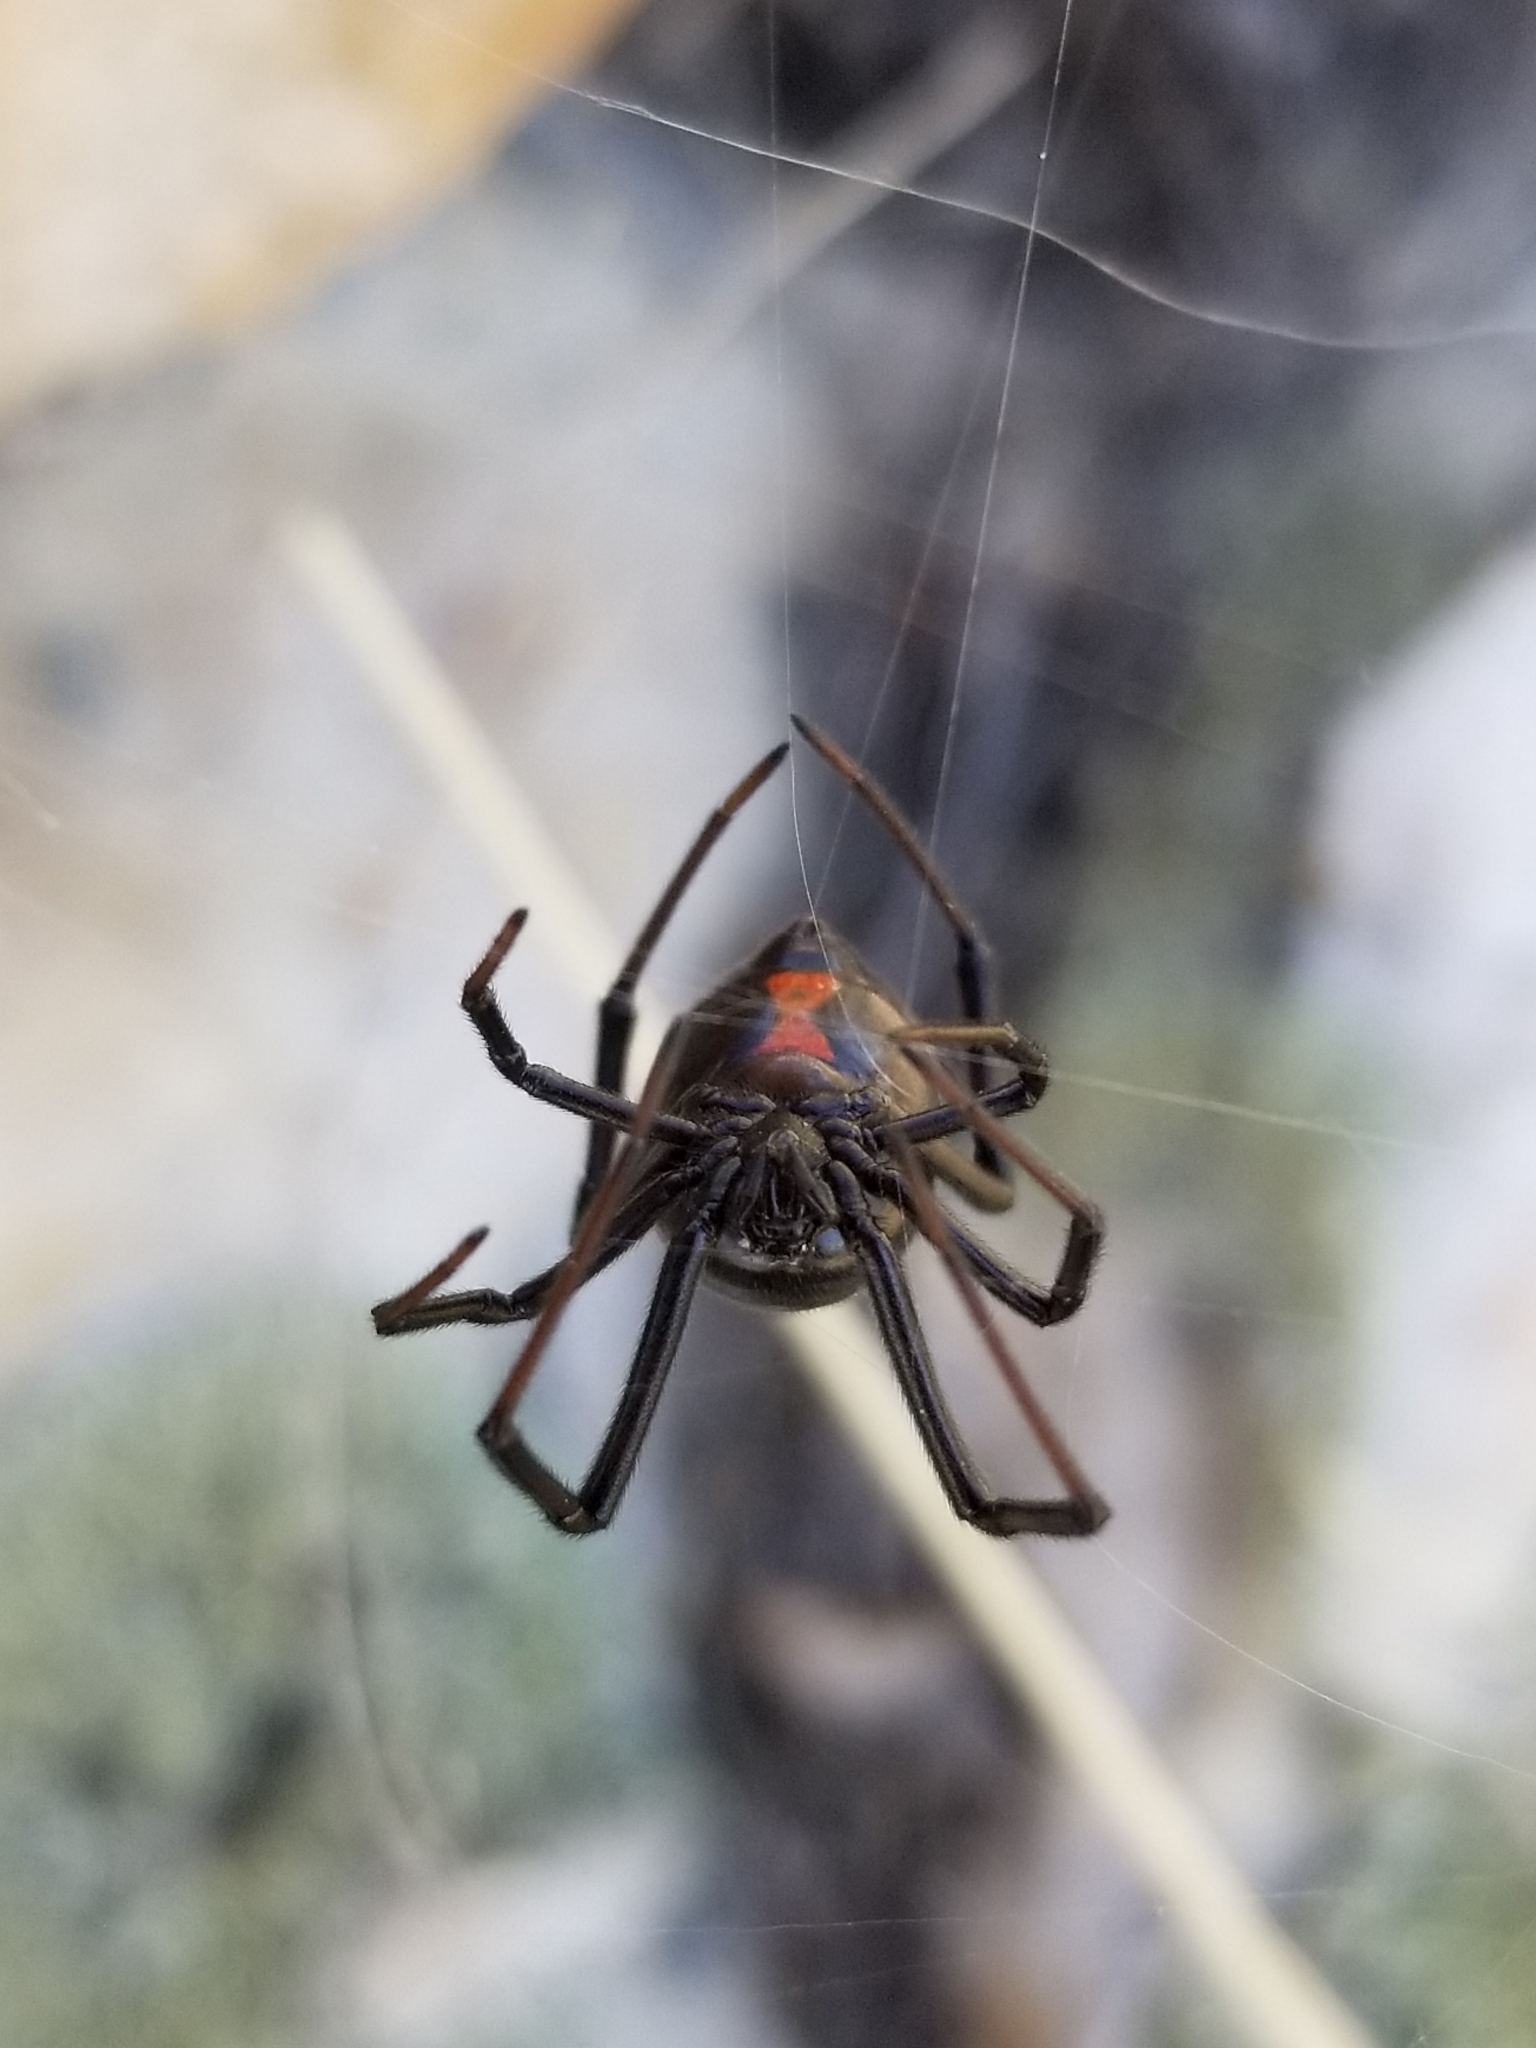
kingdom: Animalia
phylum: Arthropoda
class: Arachnida
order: Araneae
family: Theridiidae
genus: Latrodectus
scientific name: Latrodectus hesperus
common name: Western black widow
